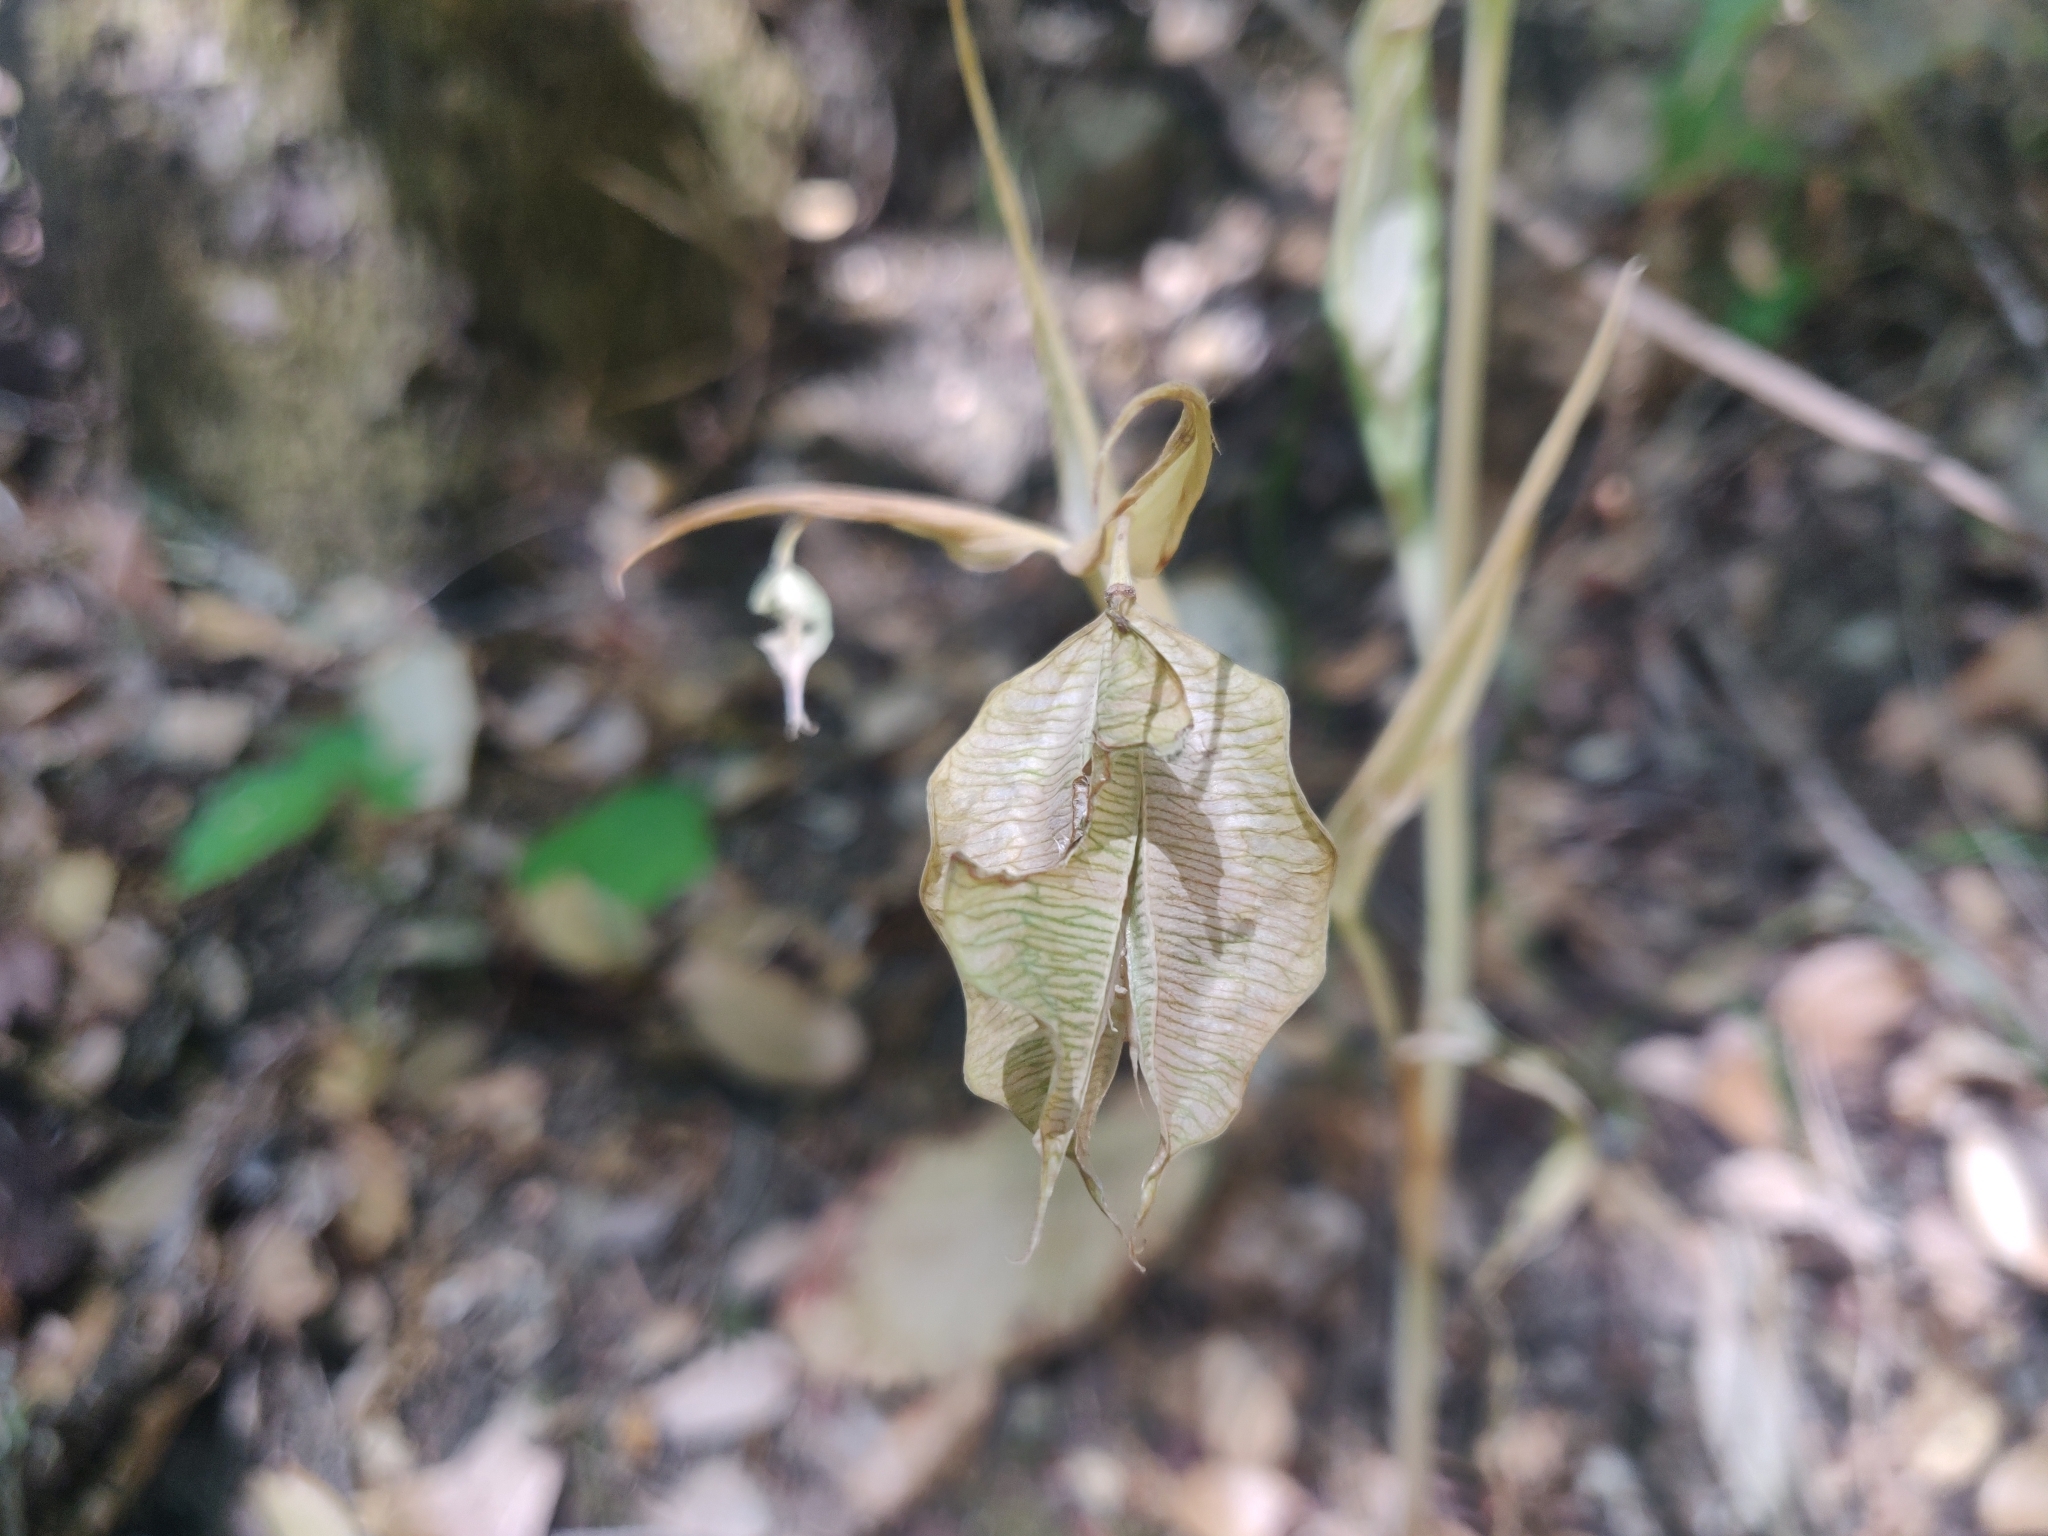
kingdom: Plantae
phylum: Tracheophyta
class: Liliopsida
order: Liliales
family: Liliaceae
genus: Calochortus
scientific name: Calochortus albus
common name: Fairy-lantern
